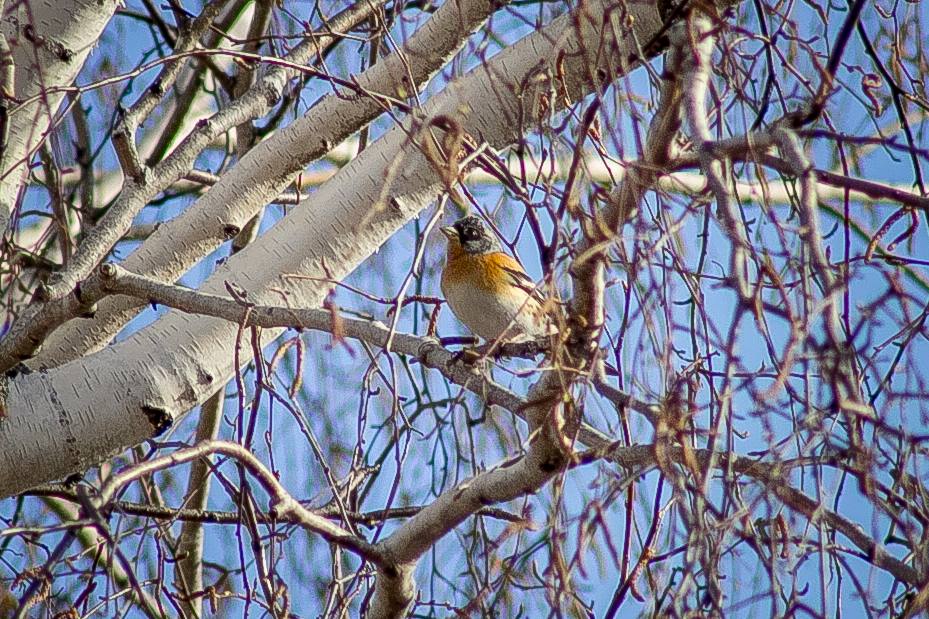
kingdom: Animalia
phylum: Chordata
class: Aves
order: Passeriformes
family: Fringillidae
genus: Fringilla
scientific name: Fringilla montifringilla
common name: Brambling
